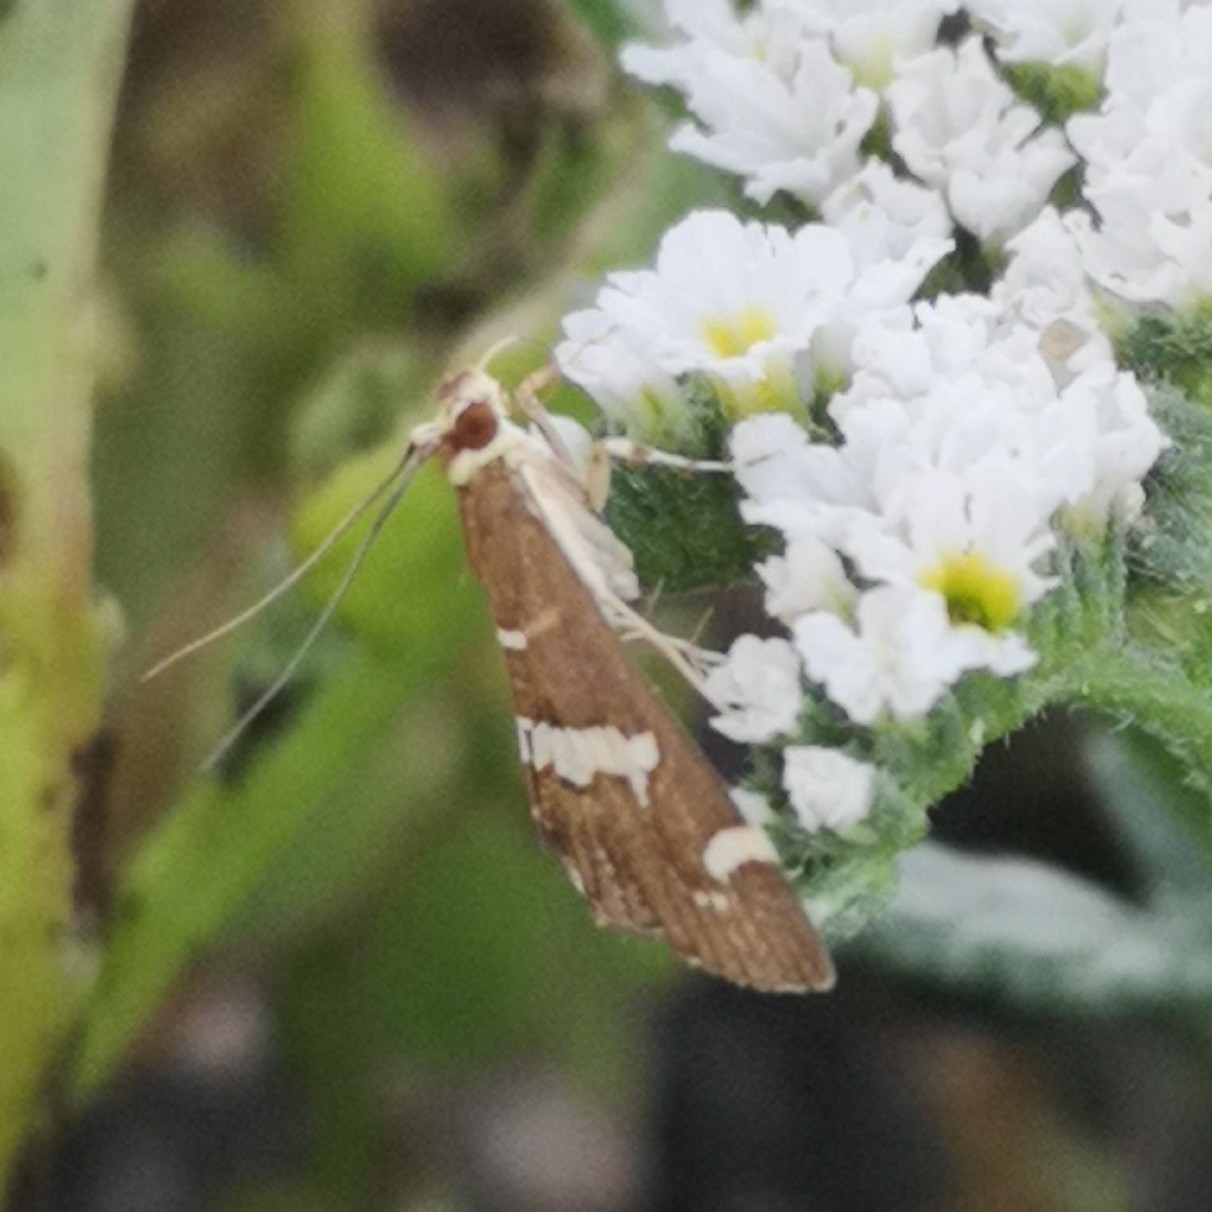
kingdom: Animalia
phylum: Arthropoda
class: Insecta
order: Lepidoptera
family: Crambidae
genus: Spoladea
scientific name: Spoladea recurvalis
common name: Beet webworm moth
